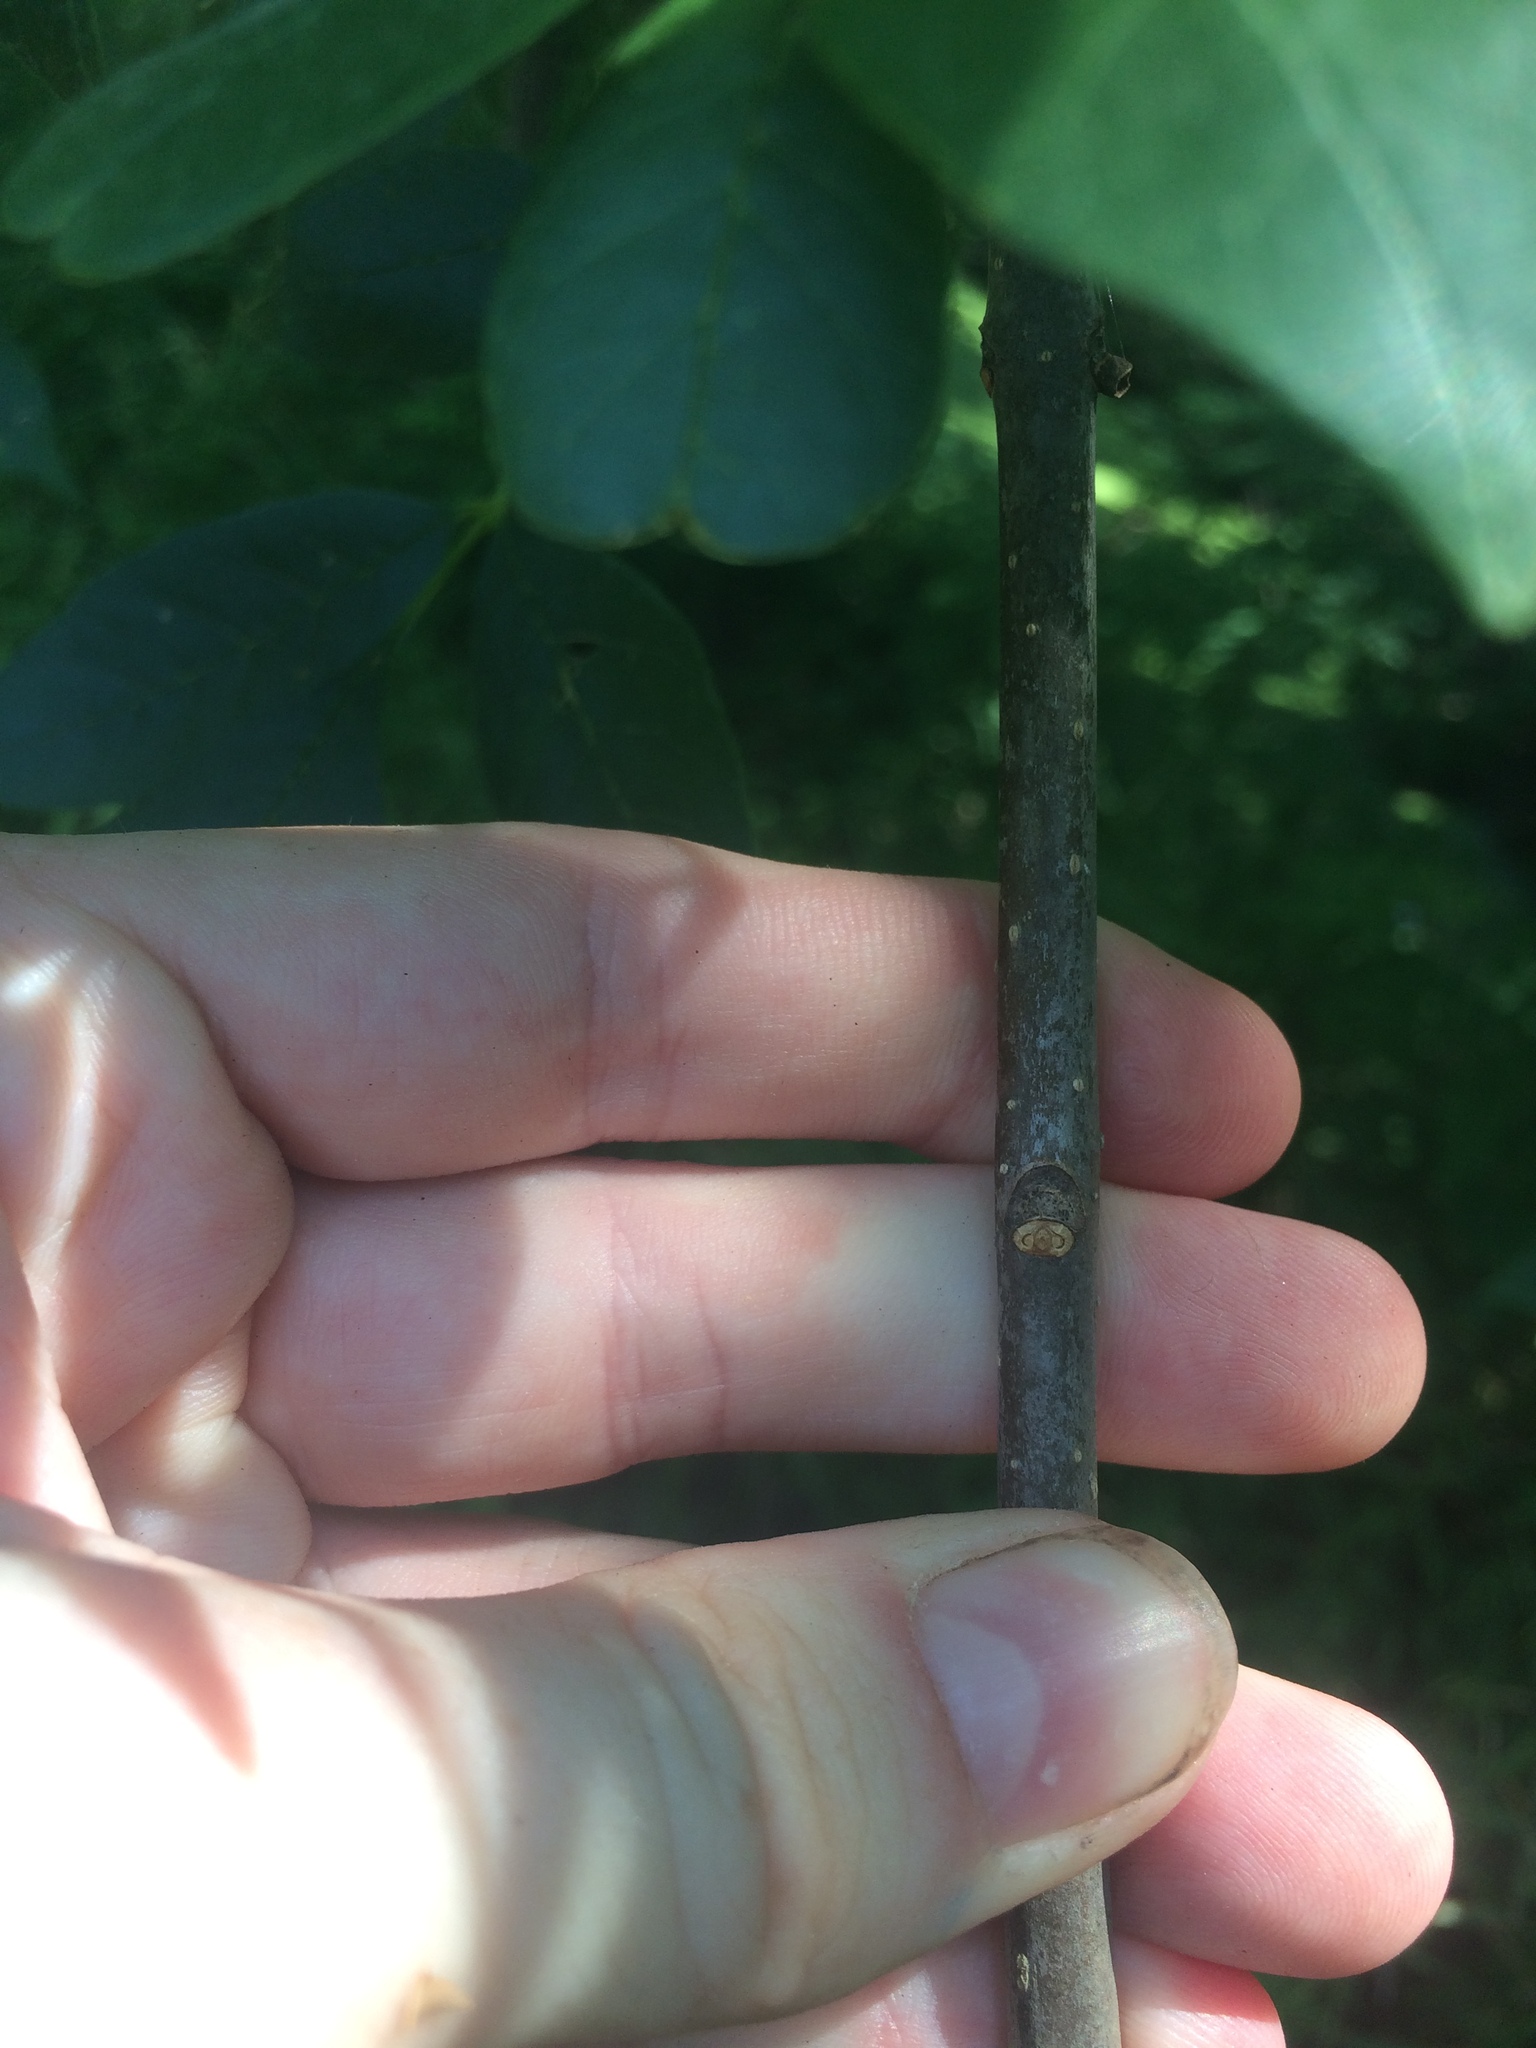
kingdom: Plantae
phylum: Tracheophyta
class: Magnoliopsida
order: Lamiales
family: Oleaceae
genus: Fraxinus
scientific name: Fraxinus pennsylvanica
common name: Green ash
